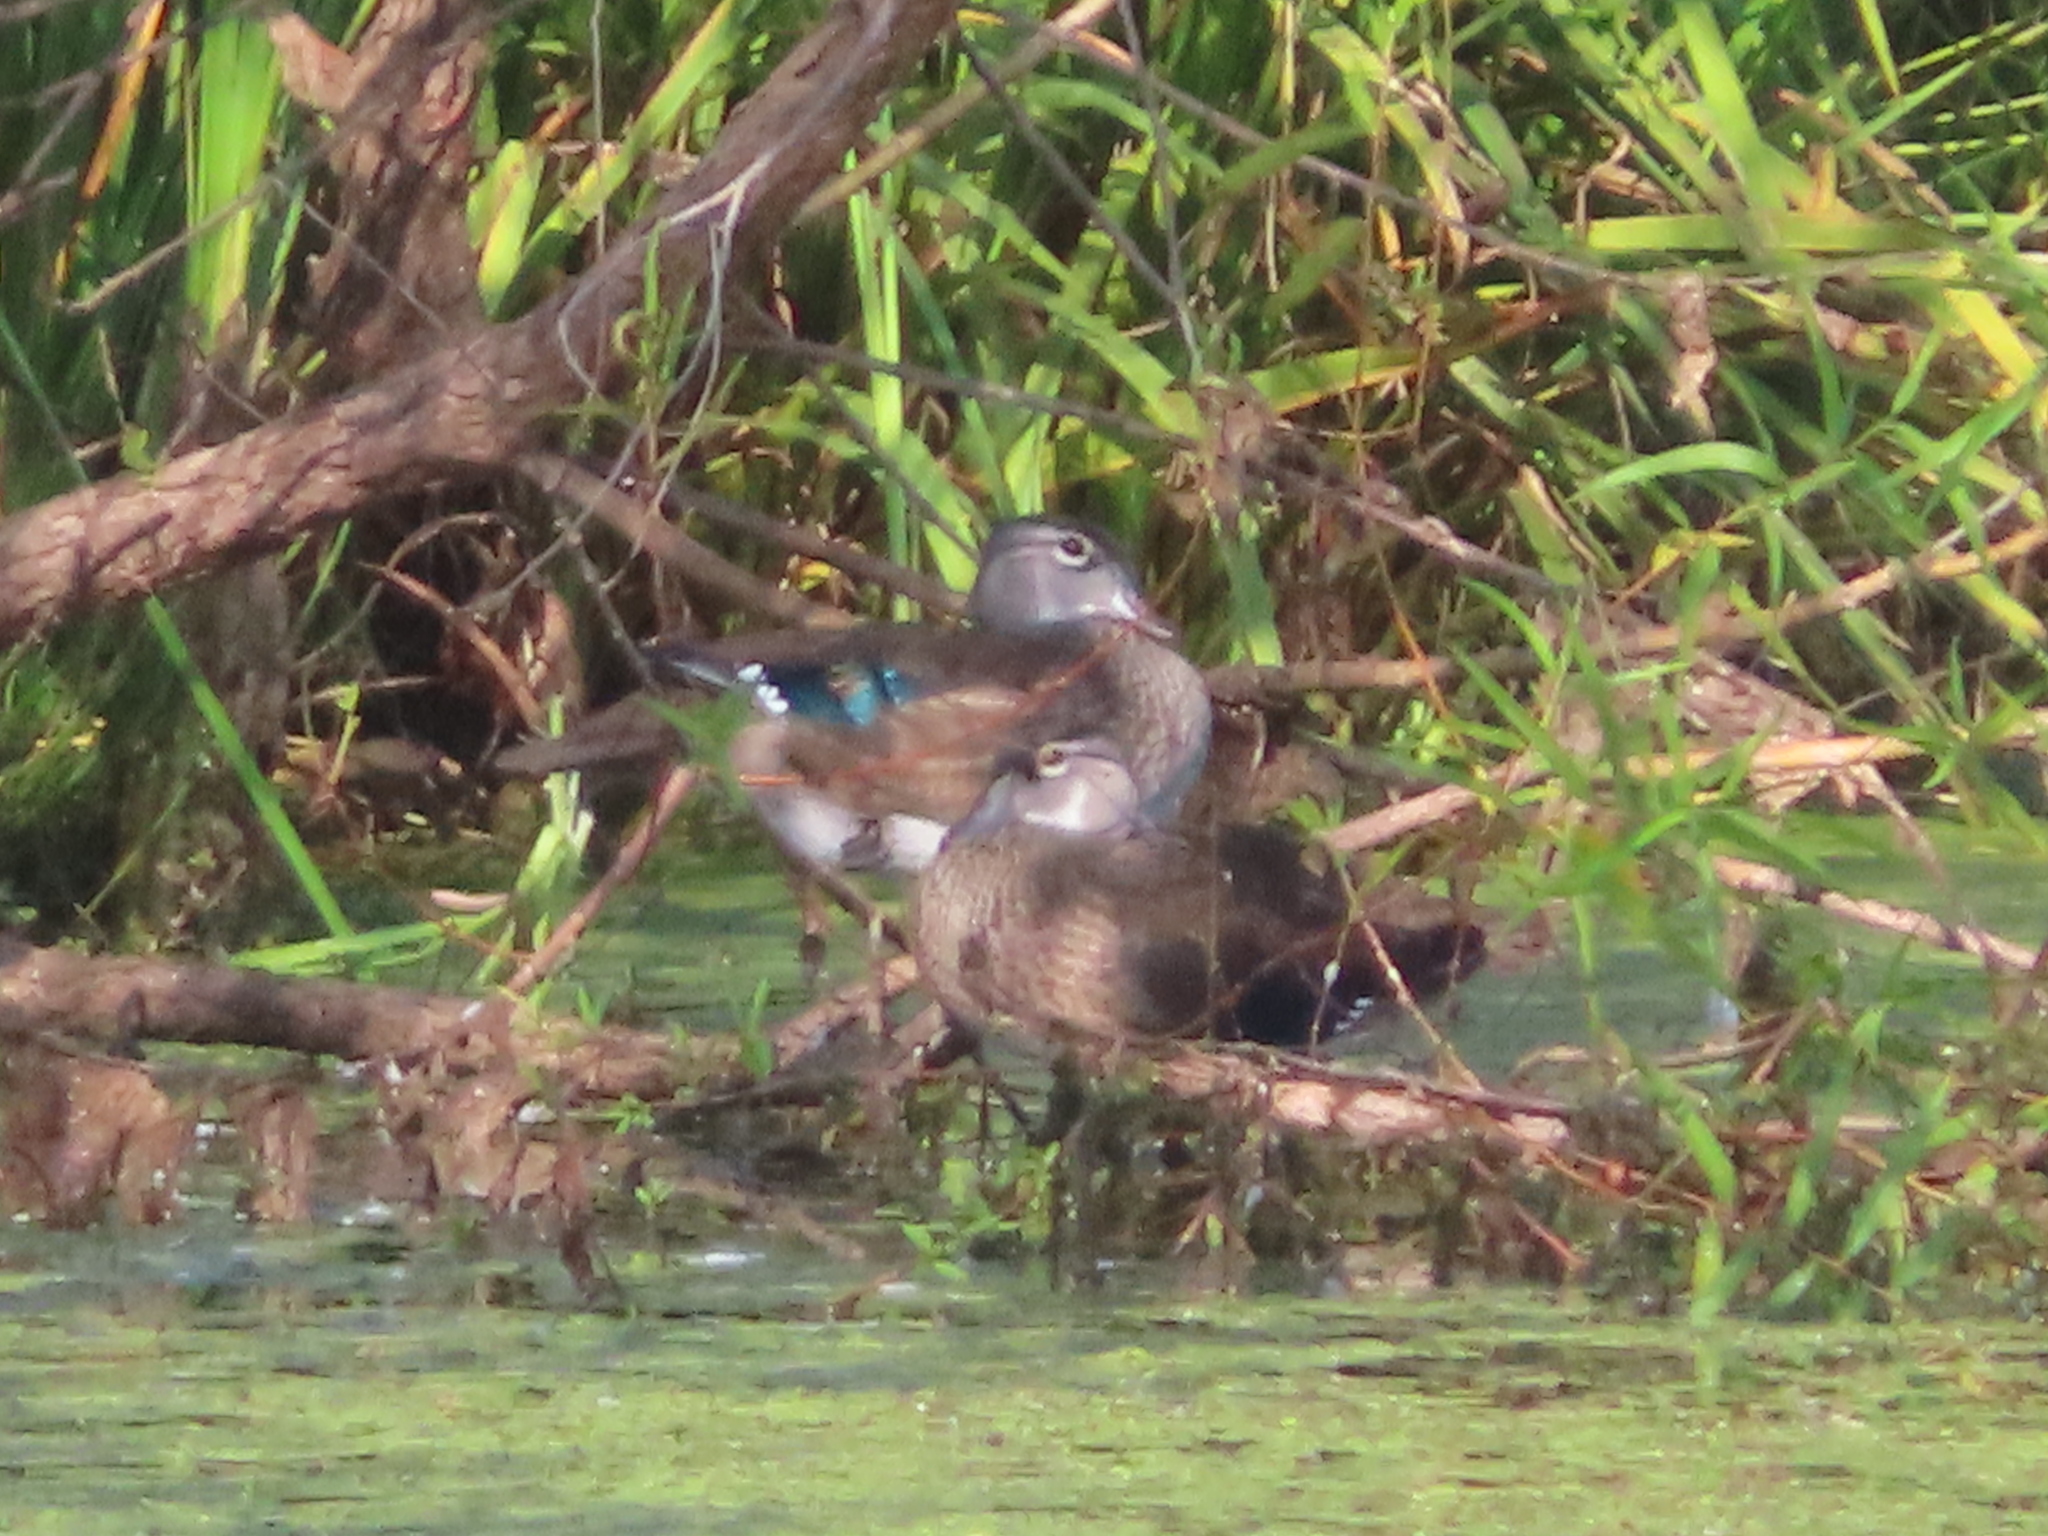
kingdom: Animalia
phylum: Chordata
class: Aves
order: Anseriformes
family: Anatidae
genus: Aix
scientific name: Aix sponsa
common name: Wood duck
